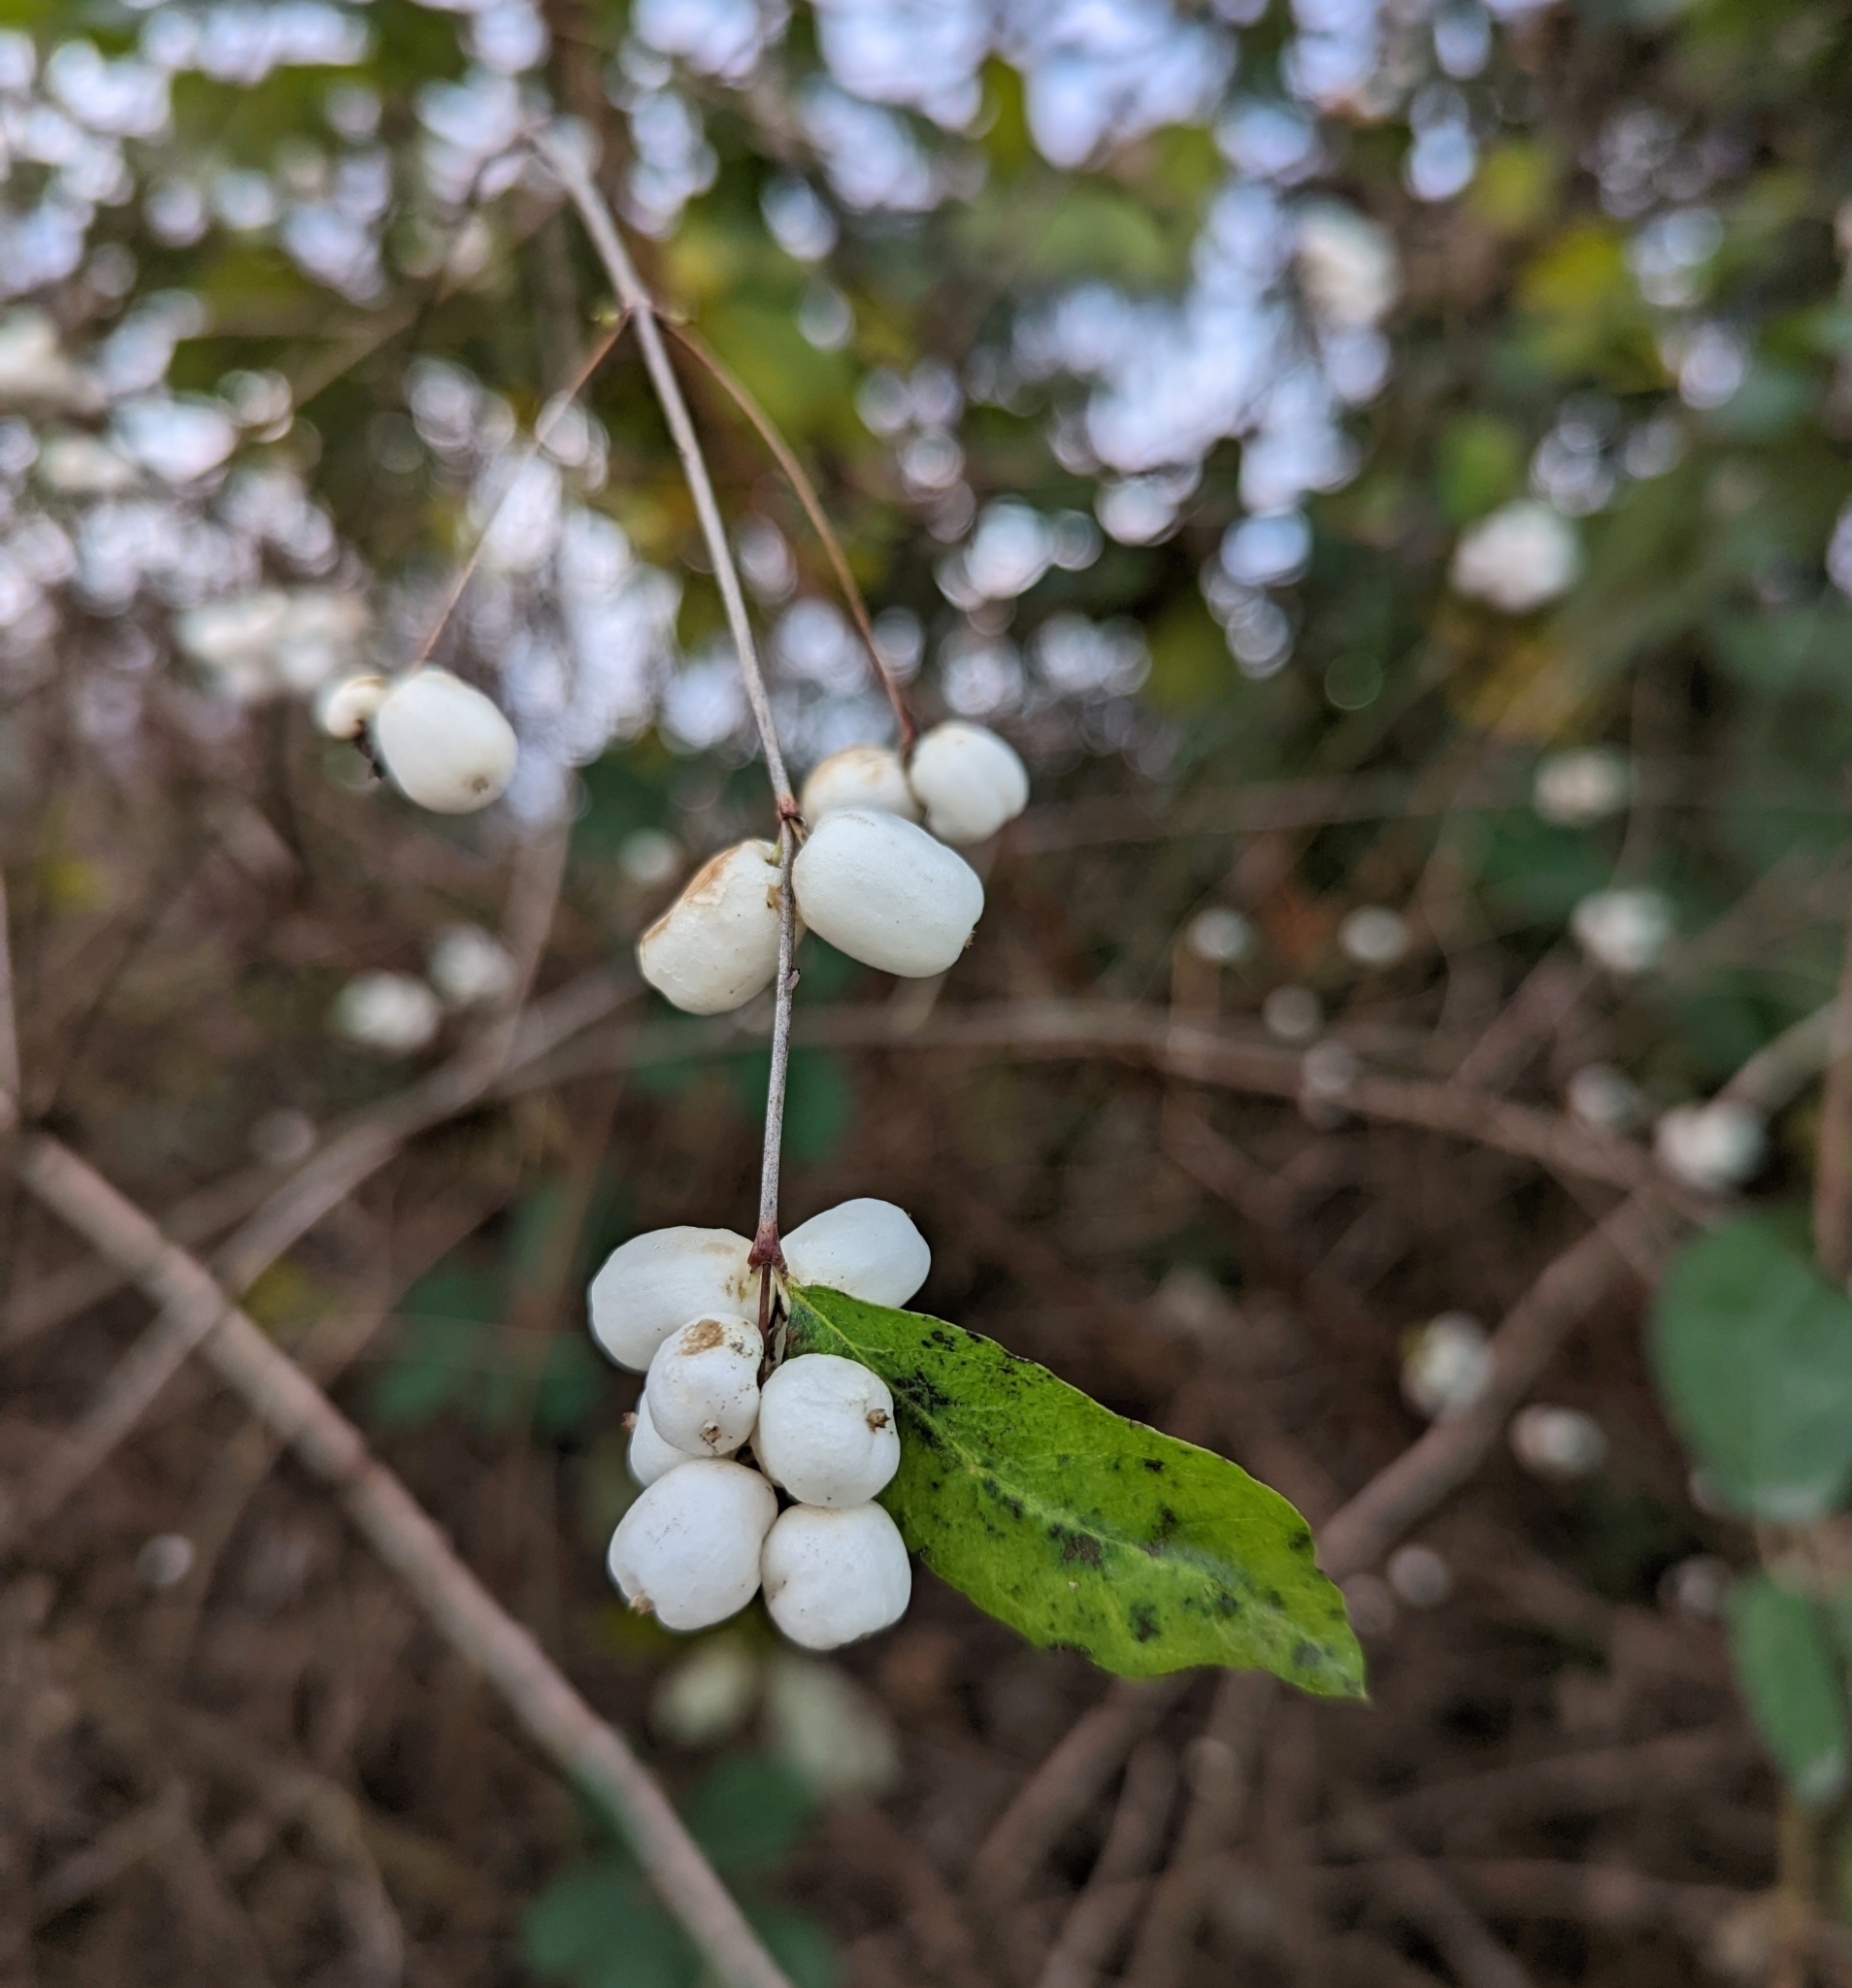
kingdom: Plantae
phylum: Tracheophyta
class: Magnoliopsida
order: Dipsacales
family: Caprifoliaceae
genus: Symphoricarpos
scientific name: Symphoricarpos albus
